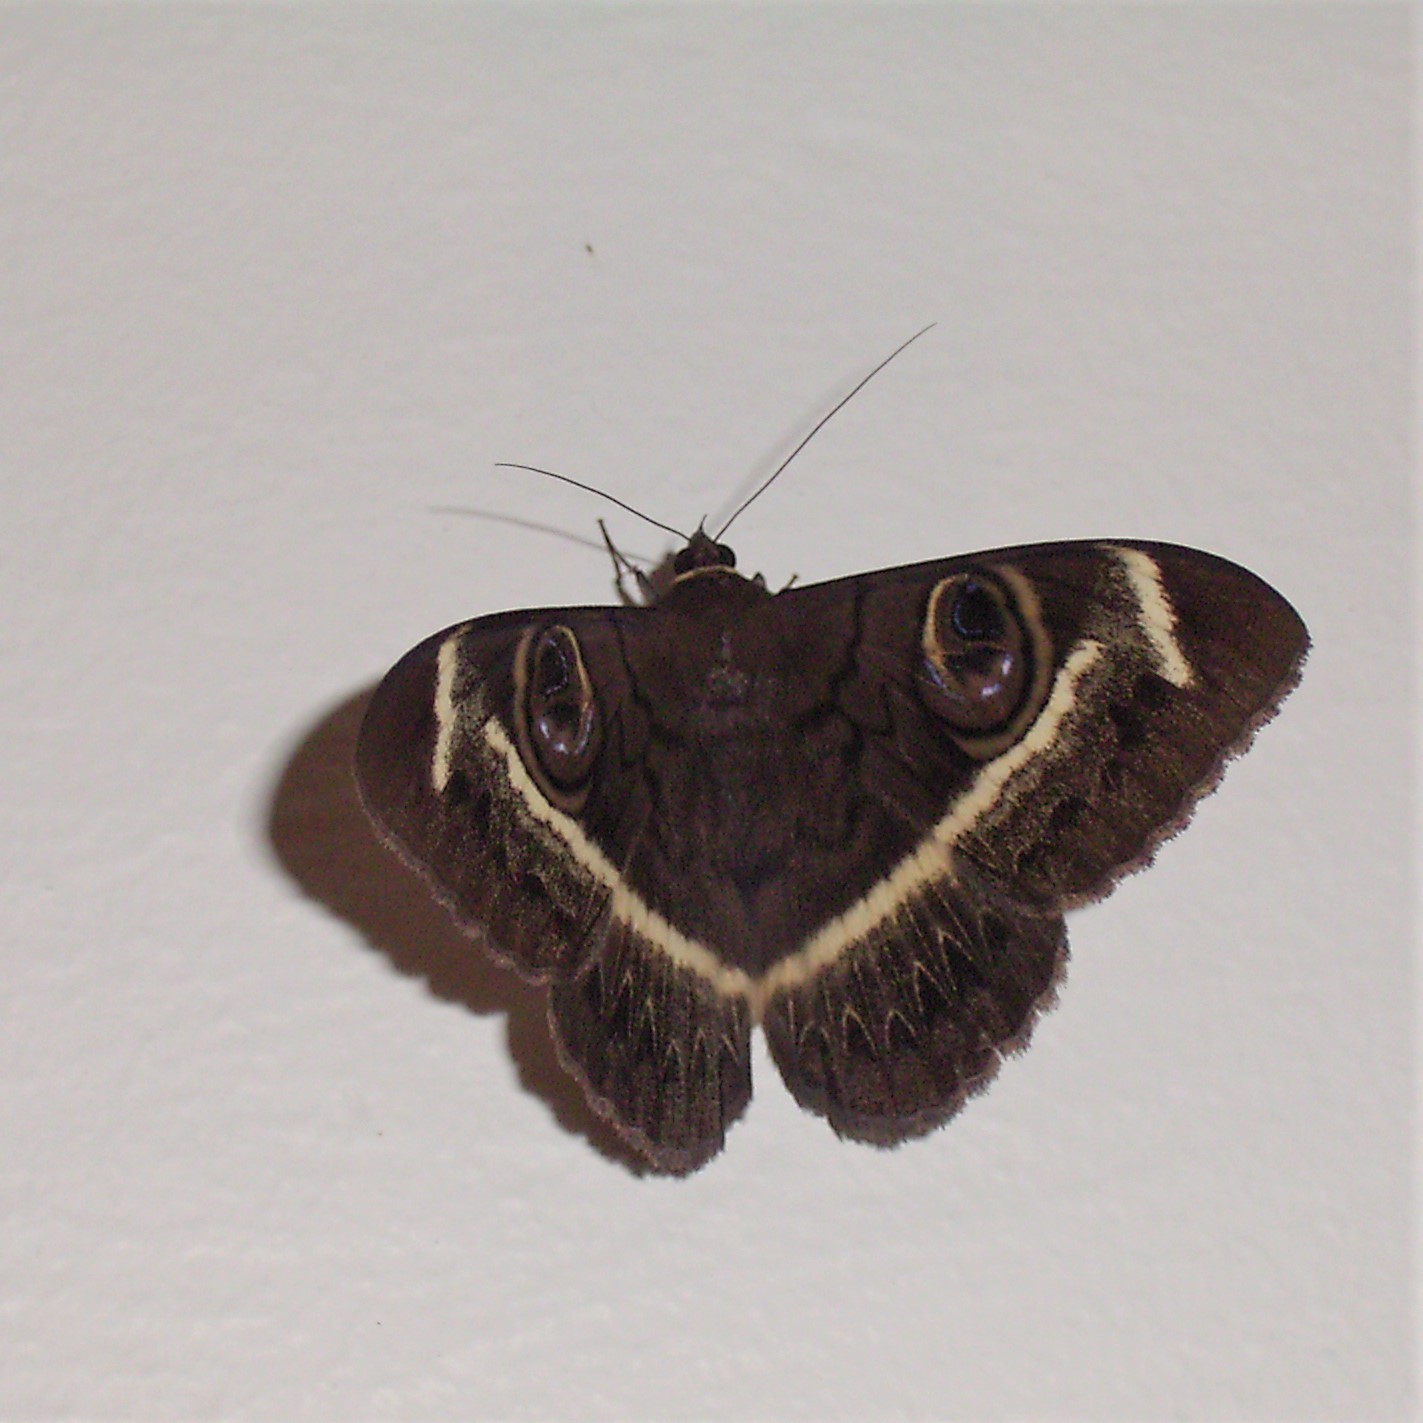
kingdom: Animalia
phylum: Arthropoda
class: Insecta
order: Lepidoptera
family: Erebidae
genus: Cyligramma
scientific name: Cyligramma latona
